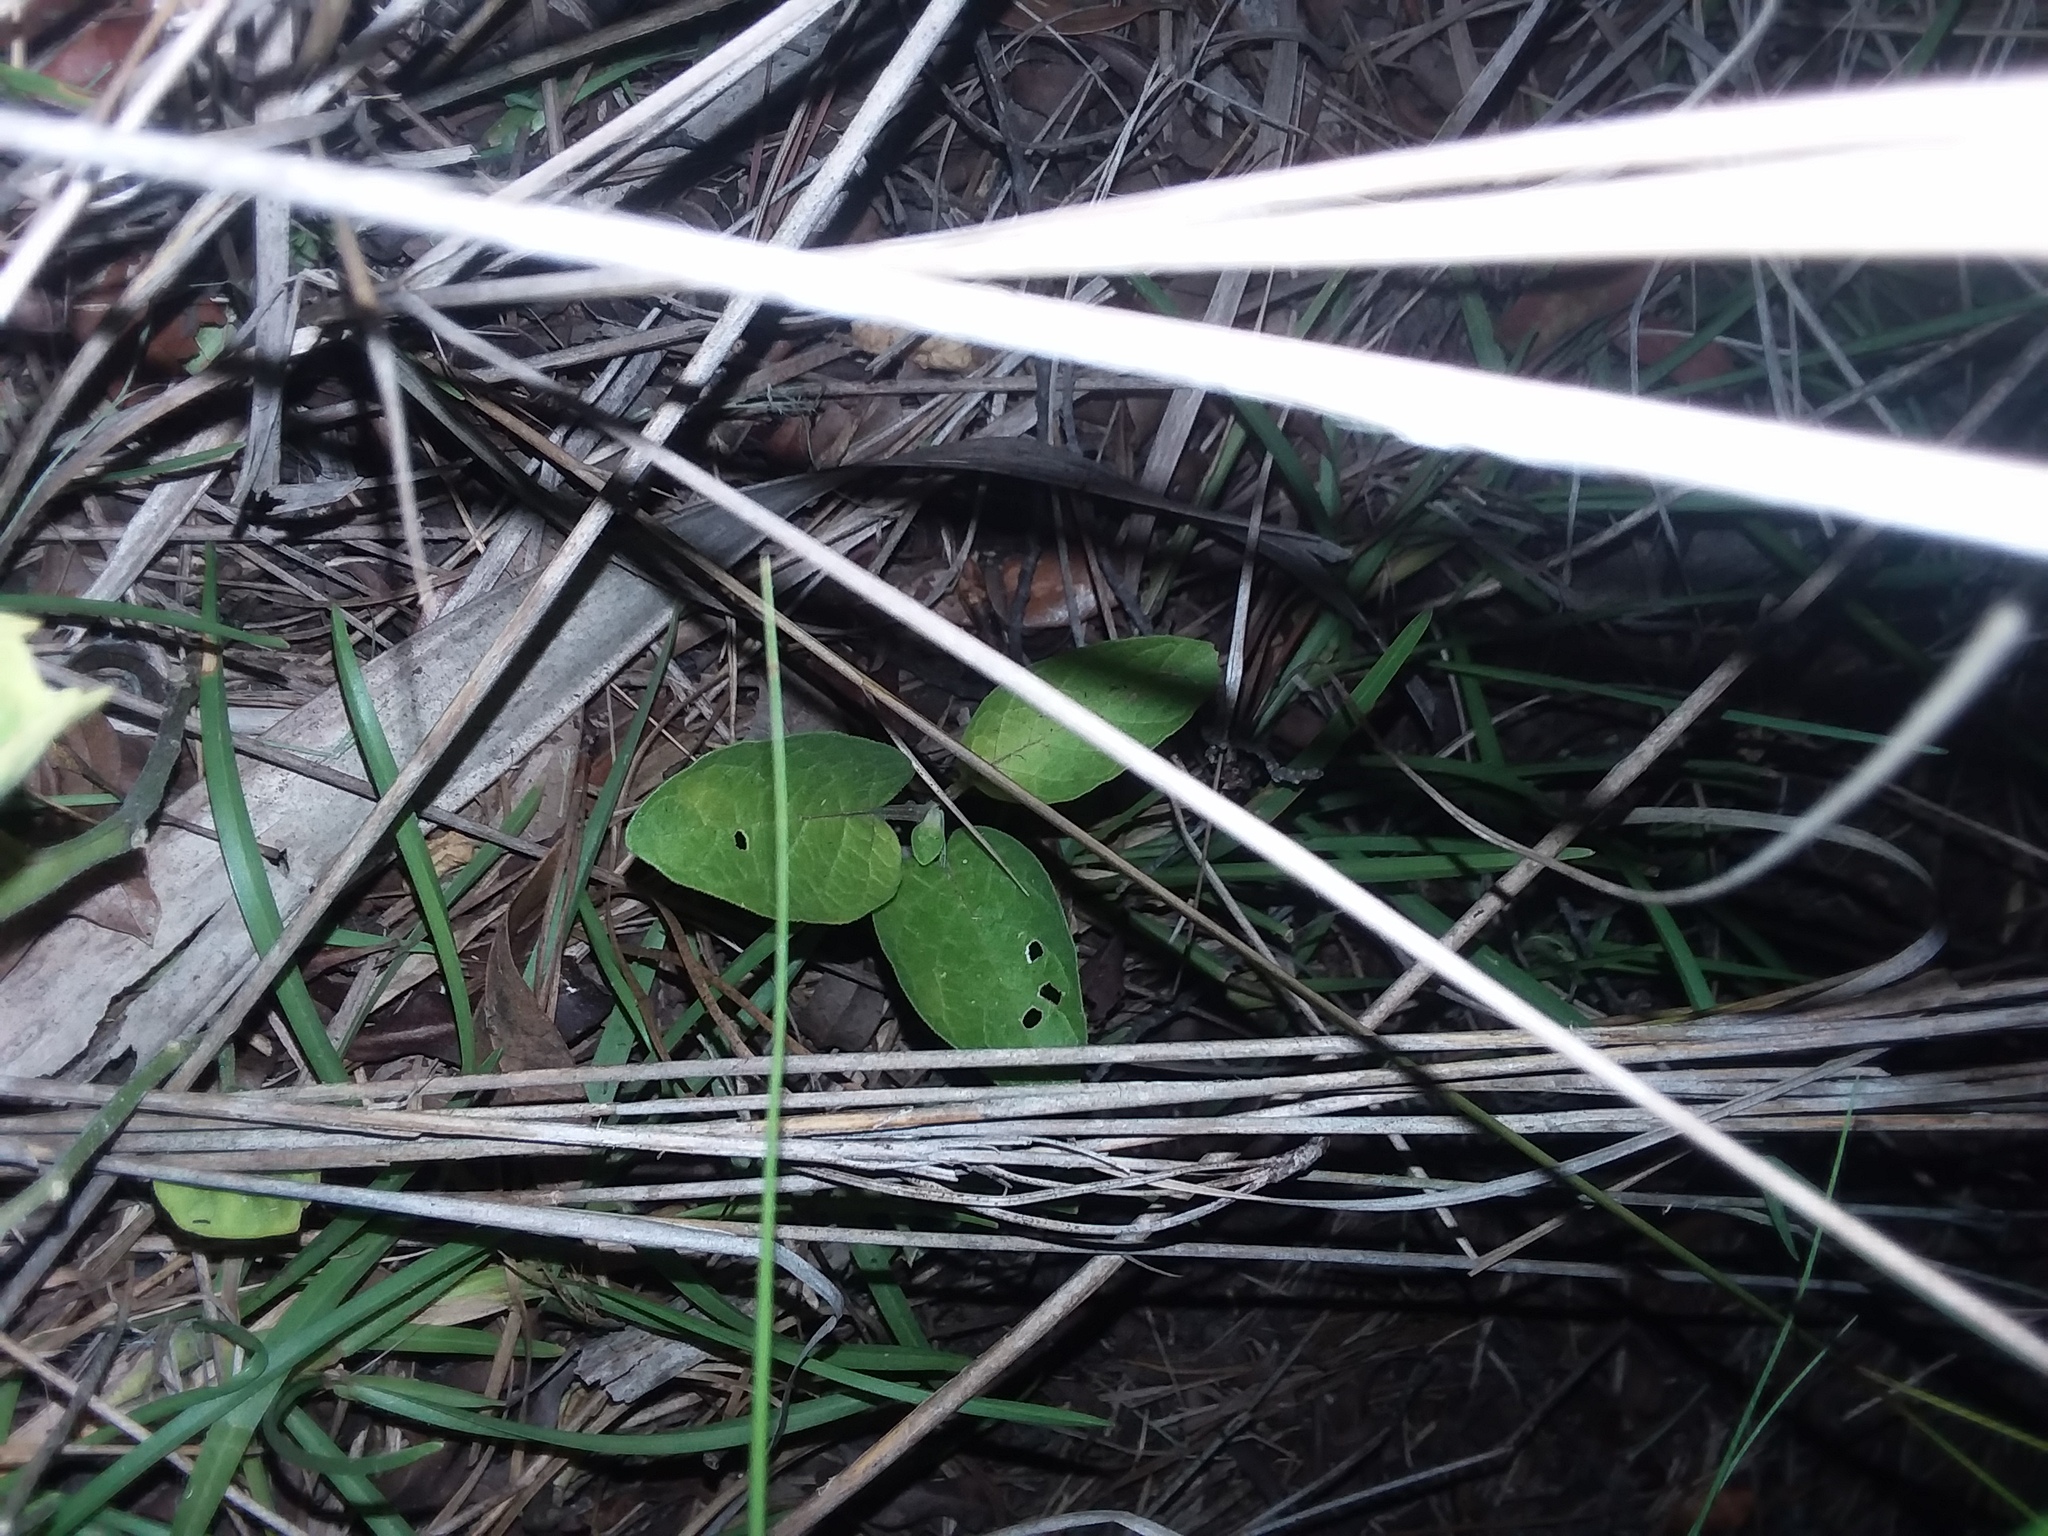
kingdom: Plantae
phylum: Tracheophyta
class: Magnoliopsida
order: Solanales
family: Solanaceae
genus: Physalis
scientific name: Physalis walteri
